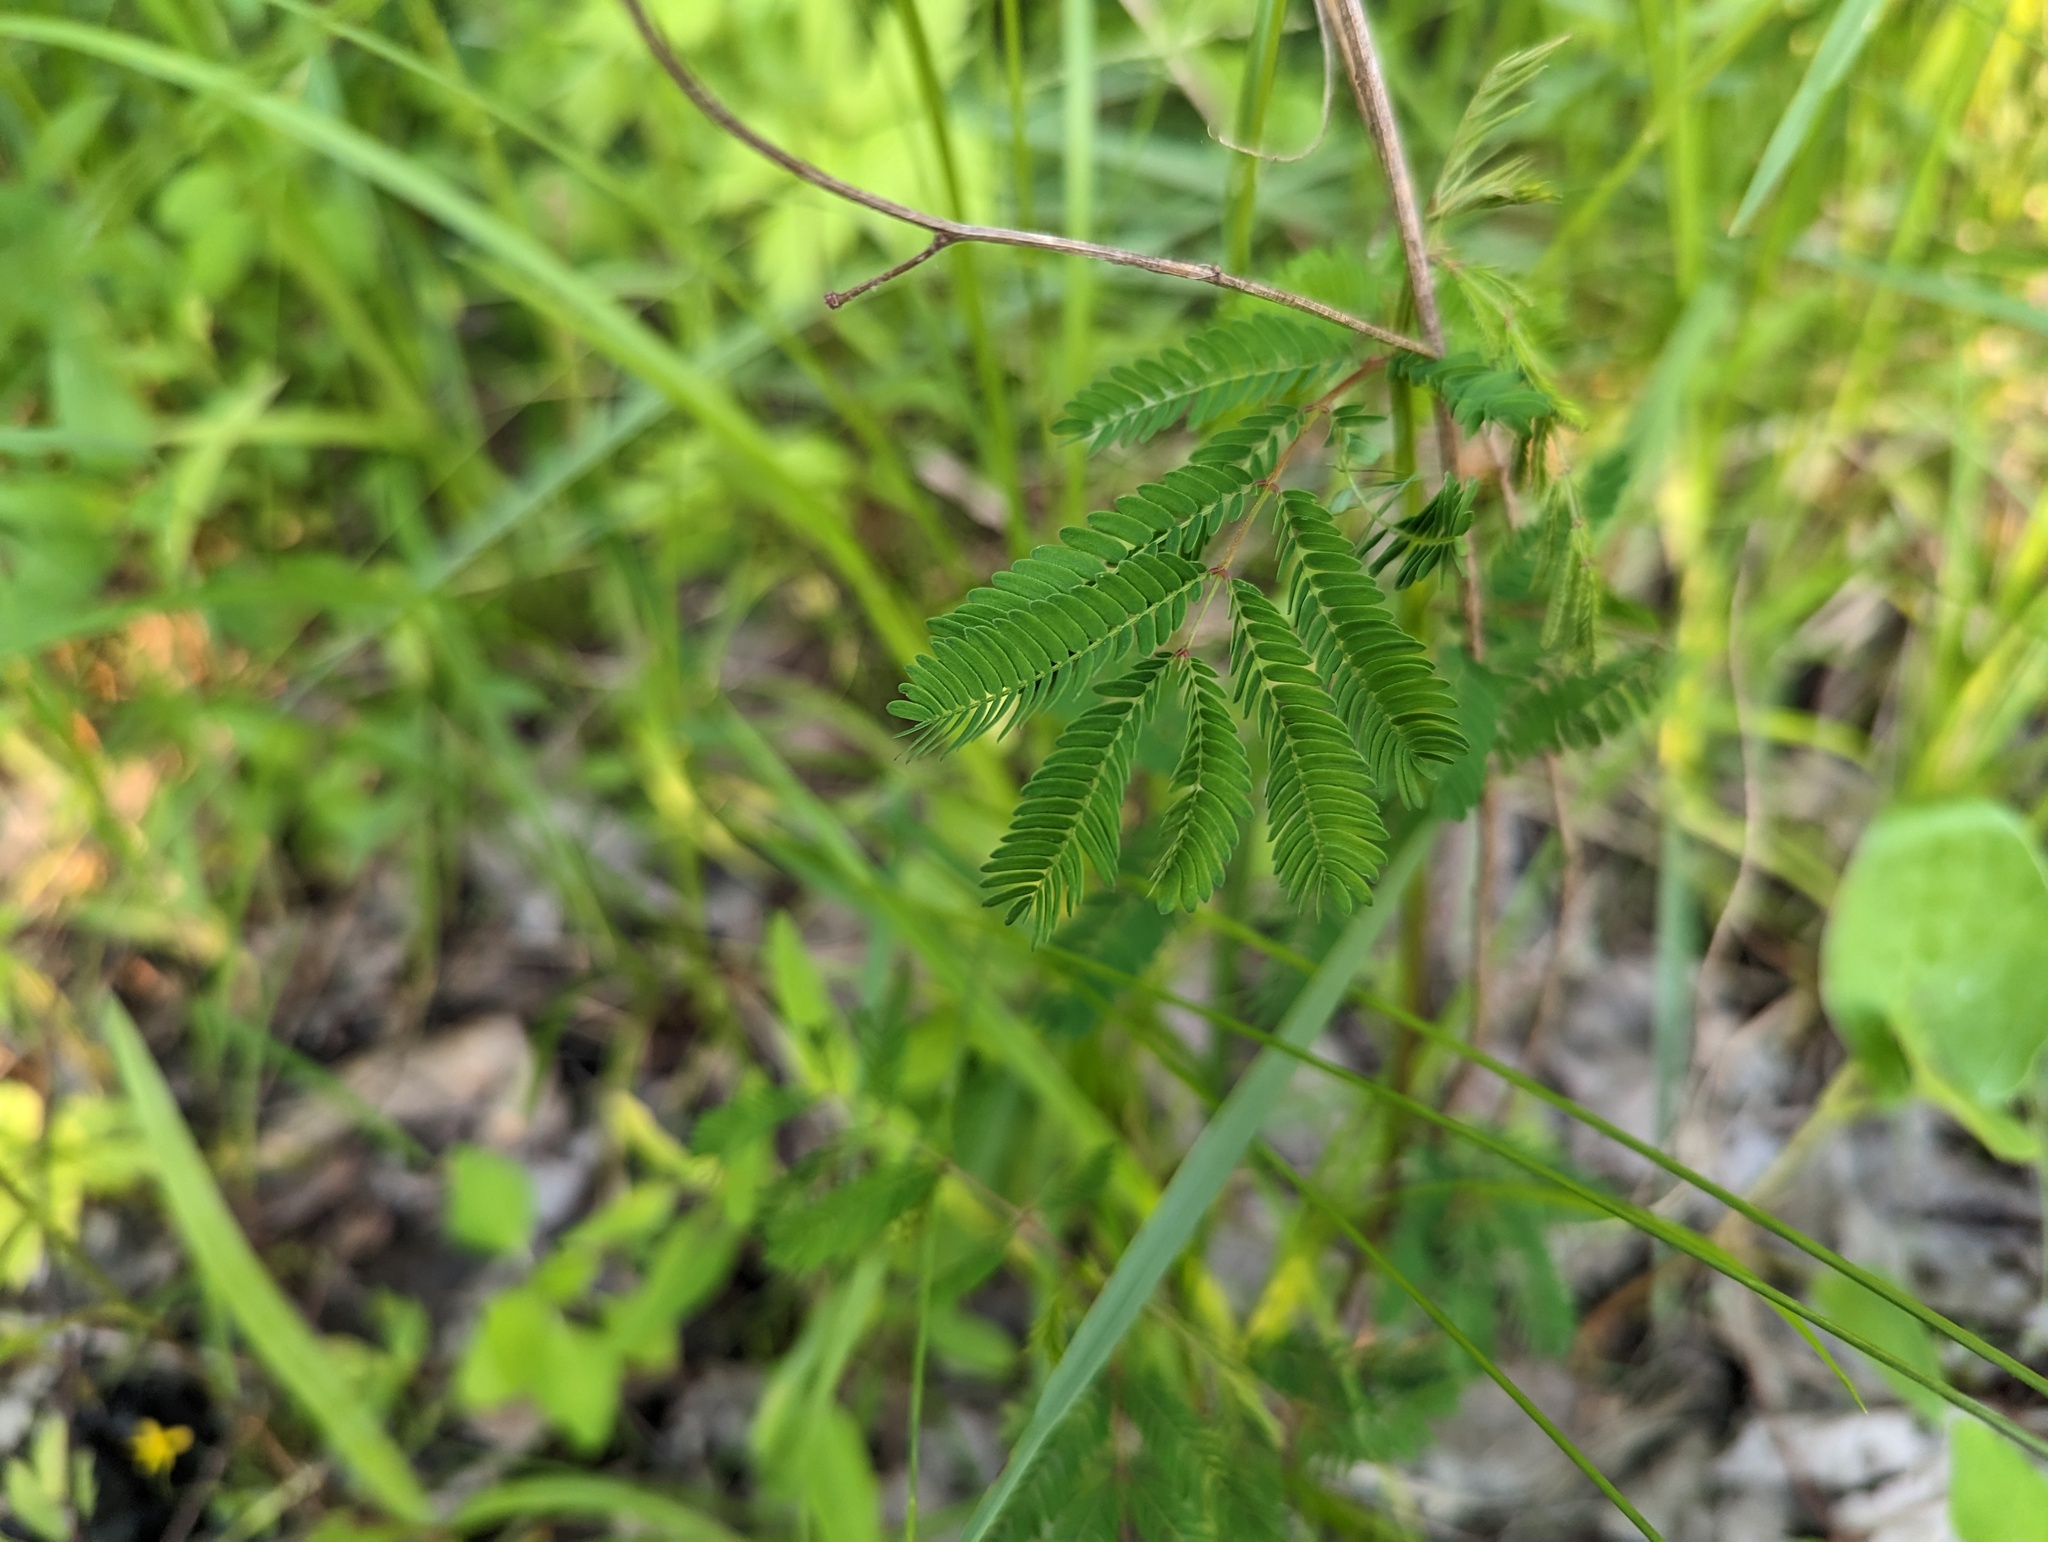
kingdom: Plantae
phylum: Tracheophyta
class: Magnoliopsida
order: Fabales
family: Fabaceae
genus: Desmanthus
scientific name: Desmanthus illinoensis
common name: Illinois bundle-flower
